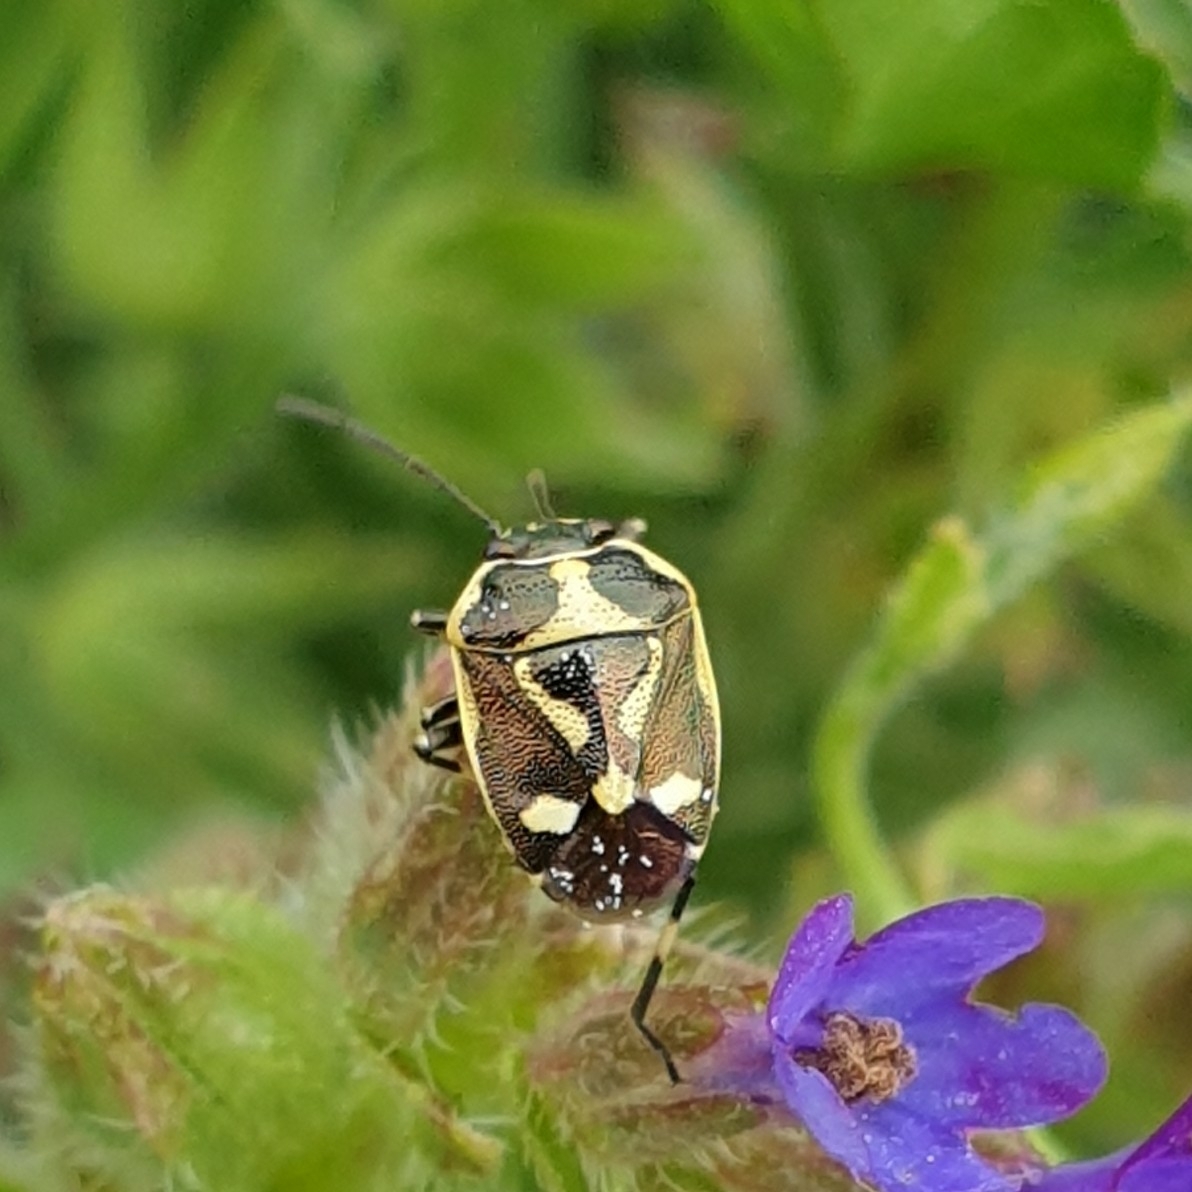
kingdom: Animalia
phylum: Arthropoda
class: Insecta
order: Hemiptera
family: Pentatomidae
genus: Eurydema
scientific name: Eurydema oleracea
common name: Cabbage bug
